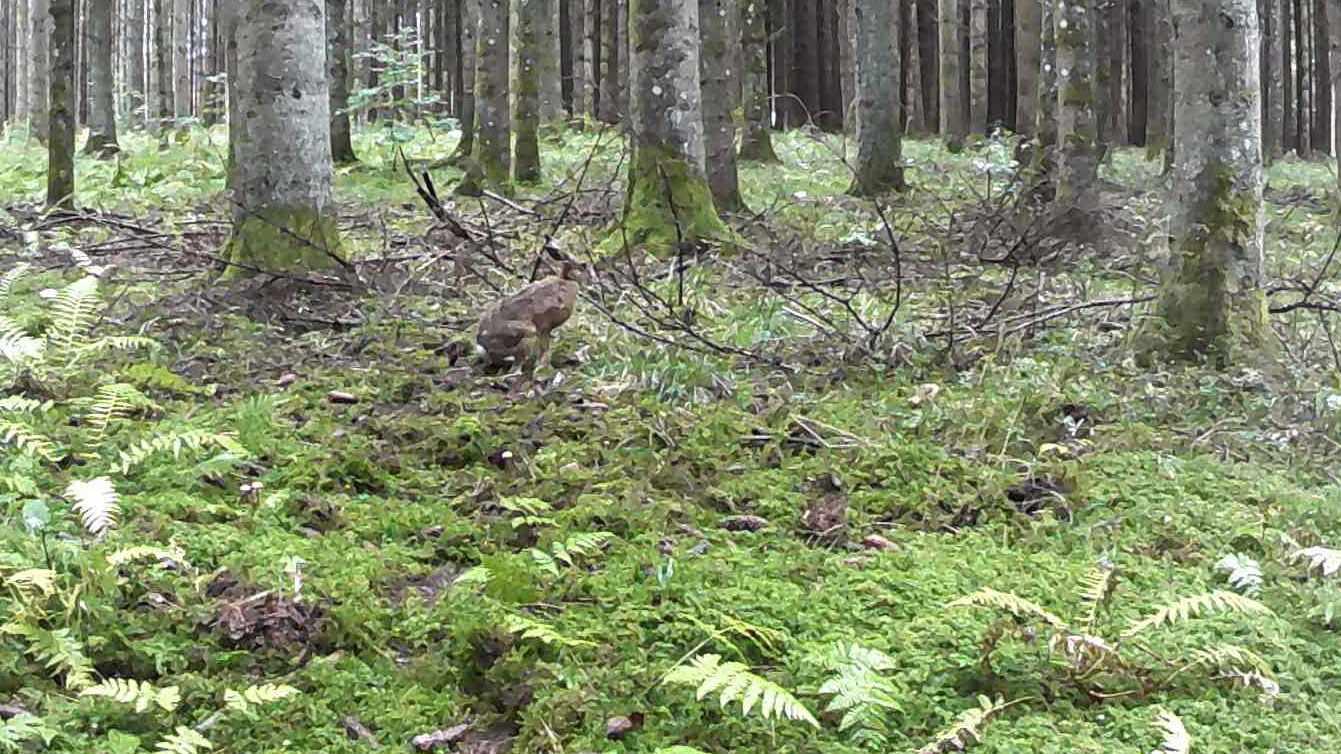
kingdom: Animalia
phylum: Chordata
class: Mammalia
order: Lagomorpha
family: Leporidae
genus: Lepus
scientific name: Lepus europaeus
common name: European hare
